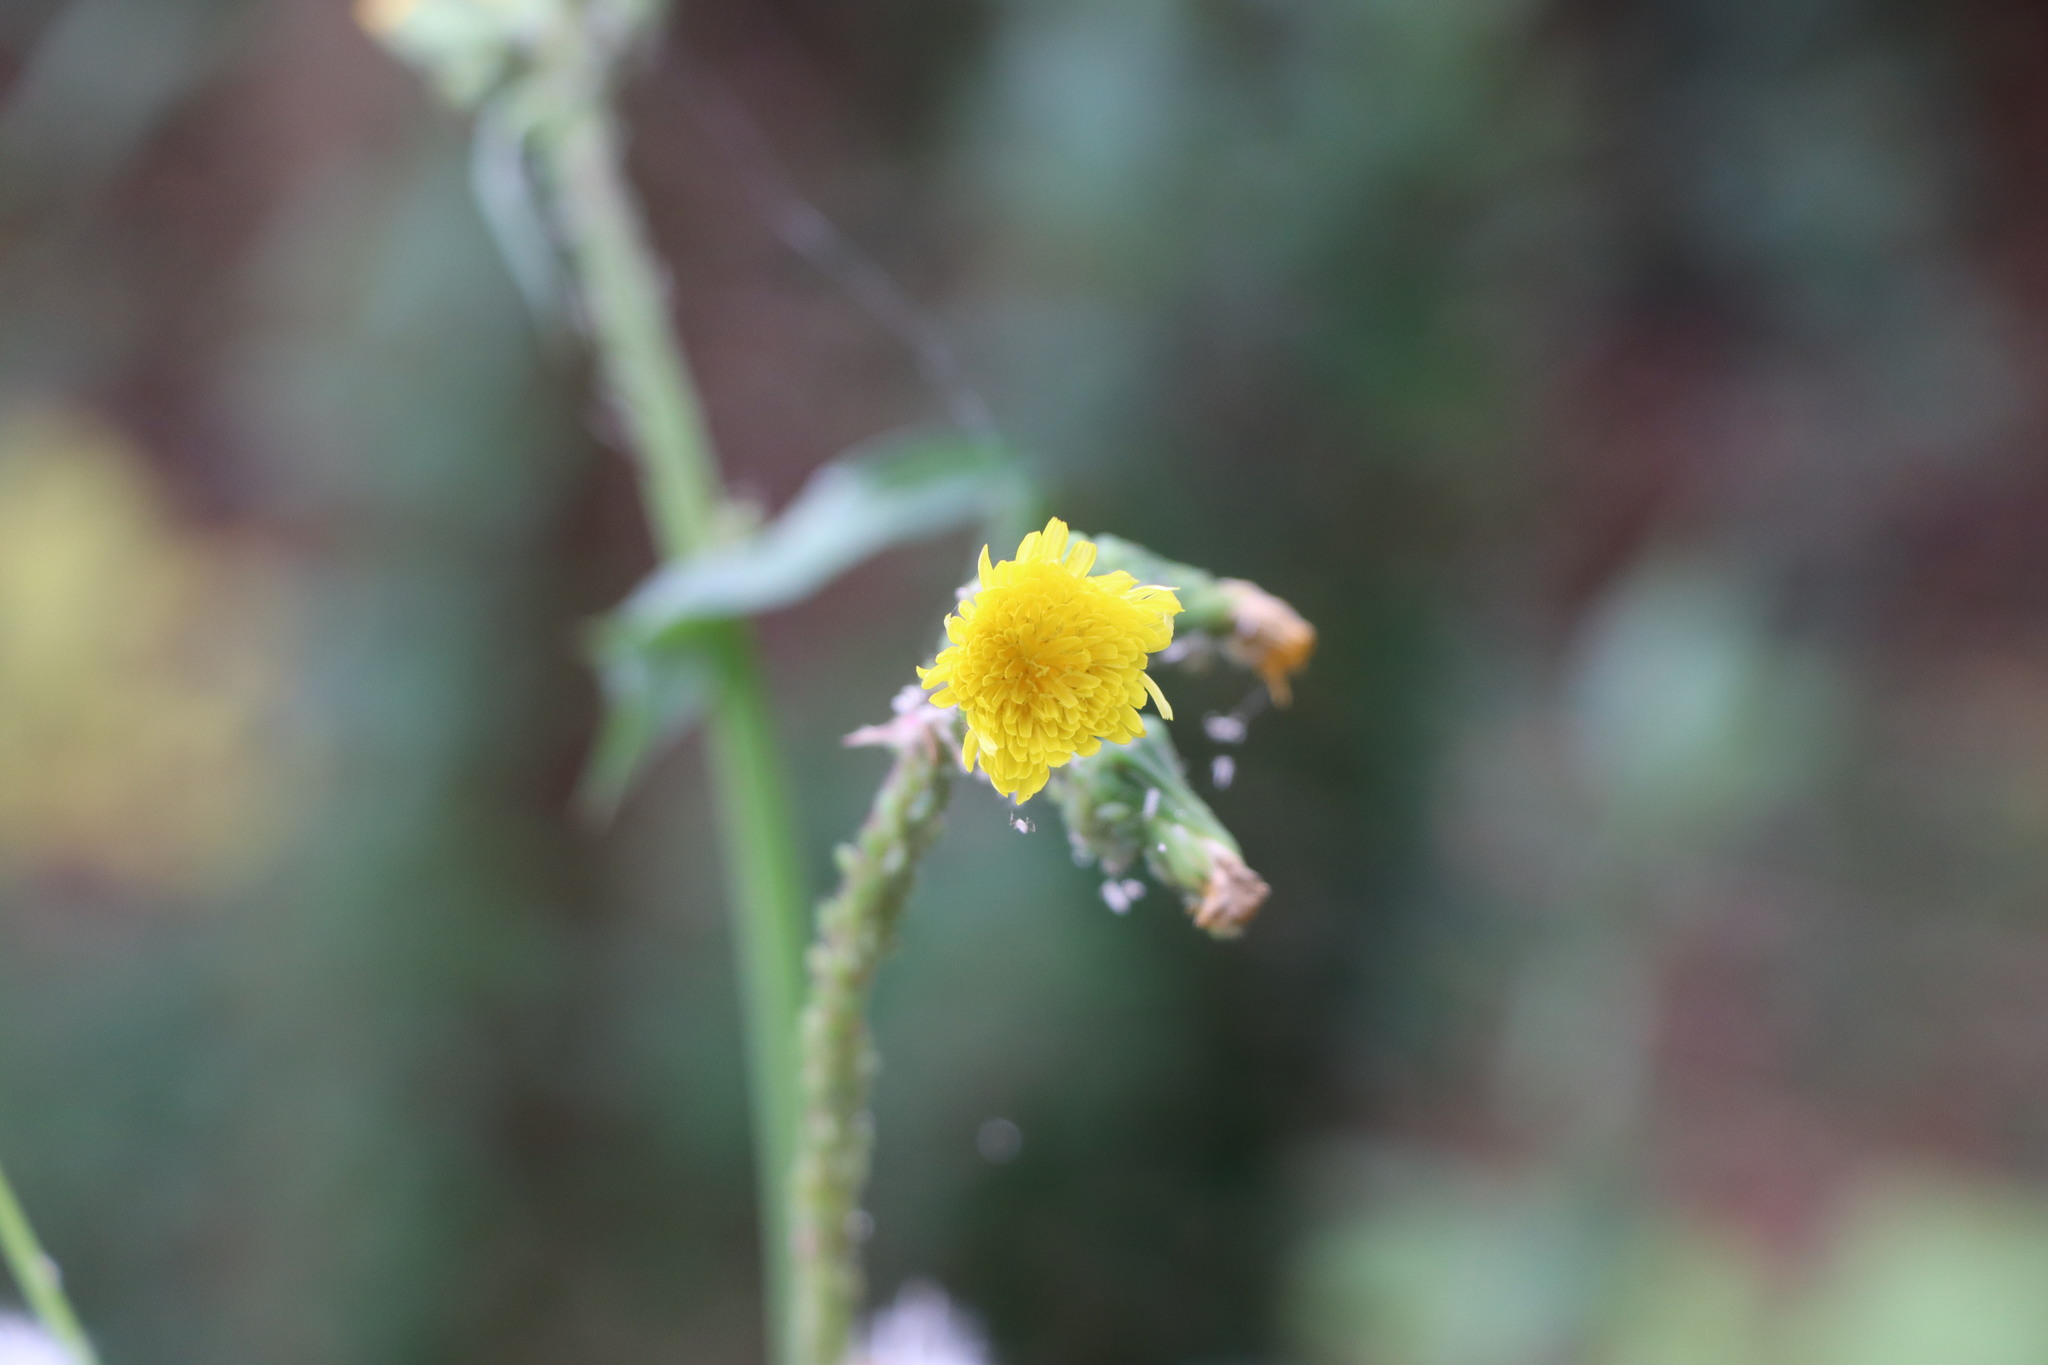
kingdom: Plantae
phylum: Tracheophyta
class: Magnoliopsida
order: Asterales
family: Asteraceae
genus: Sonchus
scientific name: Sonchus oleraceus
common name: Common sowthistle
